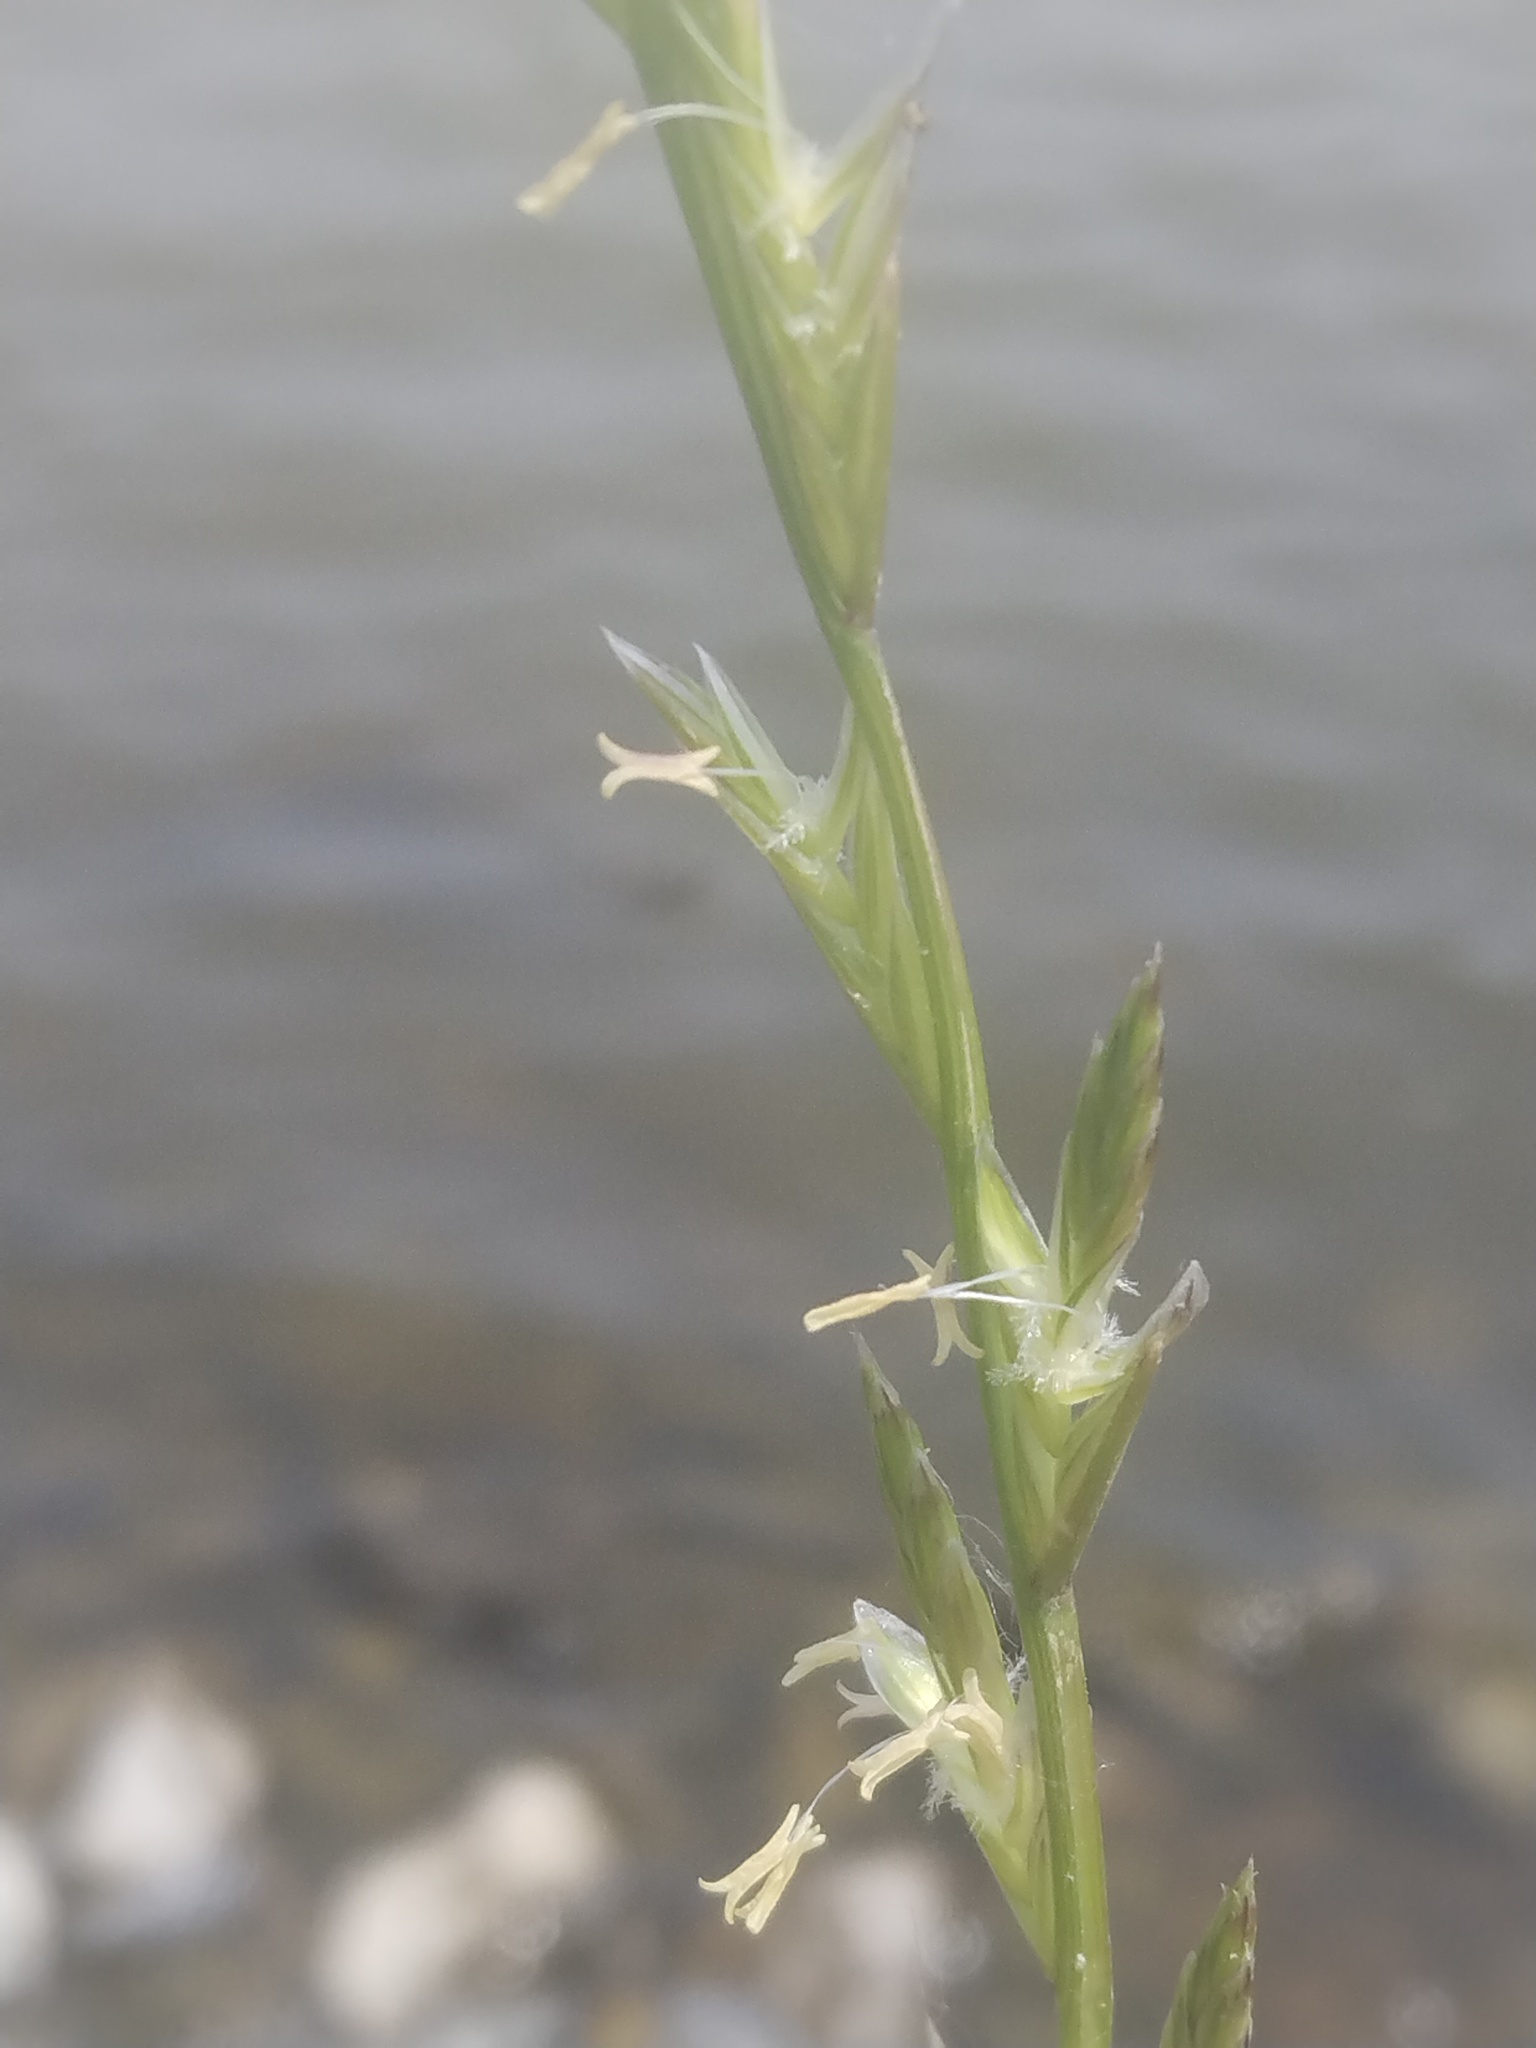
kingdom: Plantae
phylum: Tracheophyta
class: Liliopsida
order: Poales
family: Poaceae
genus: Lolium
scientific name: Lolium perenne
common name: Perennial ryegrass
